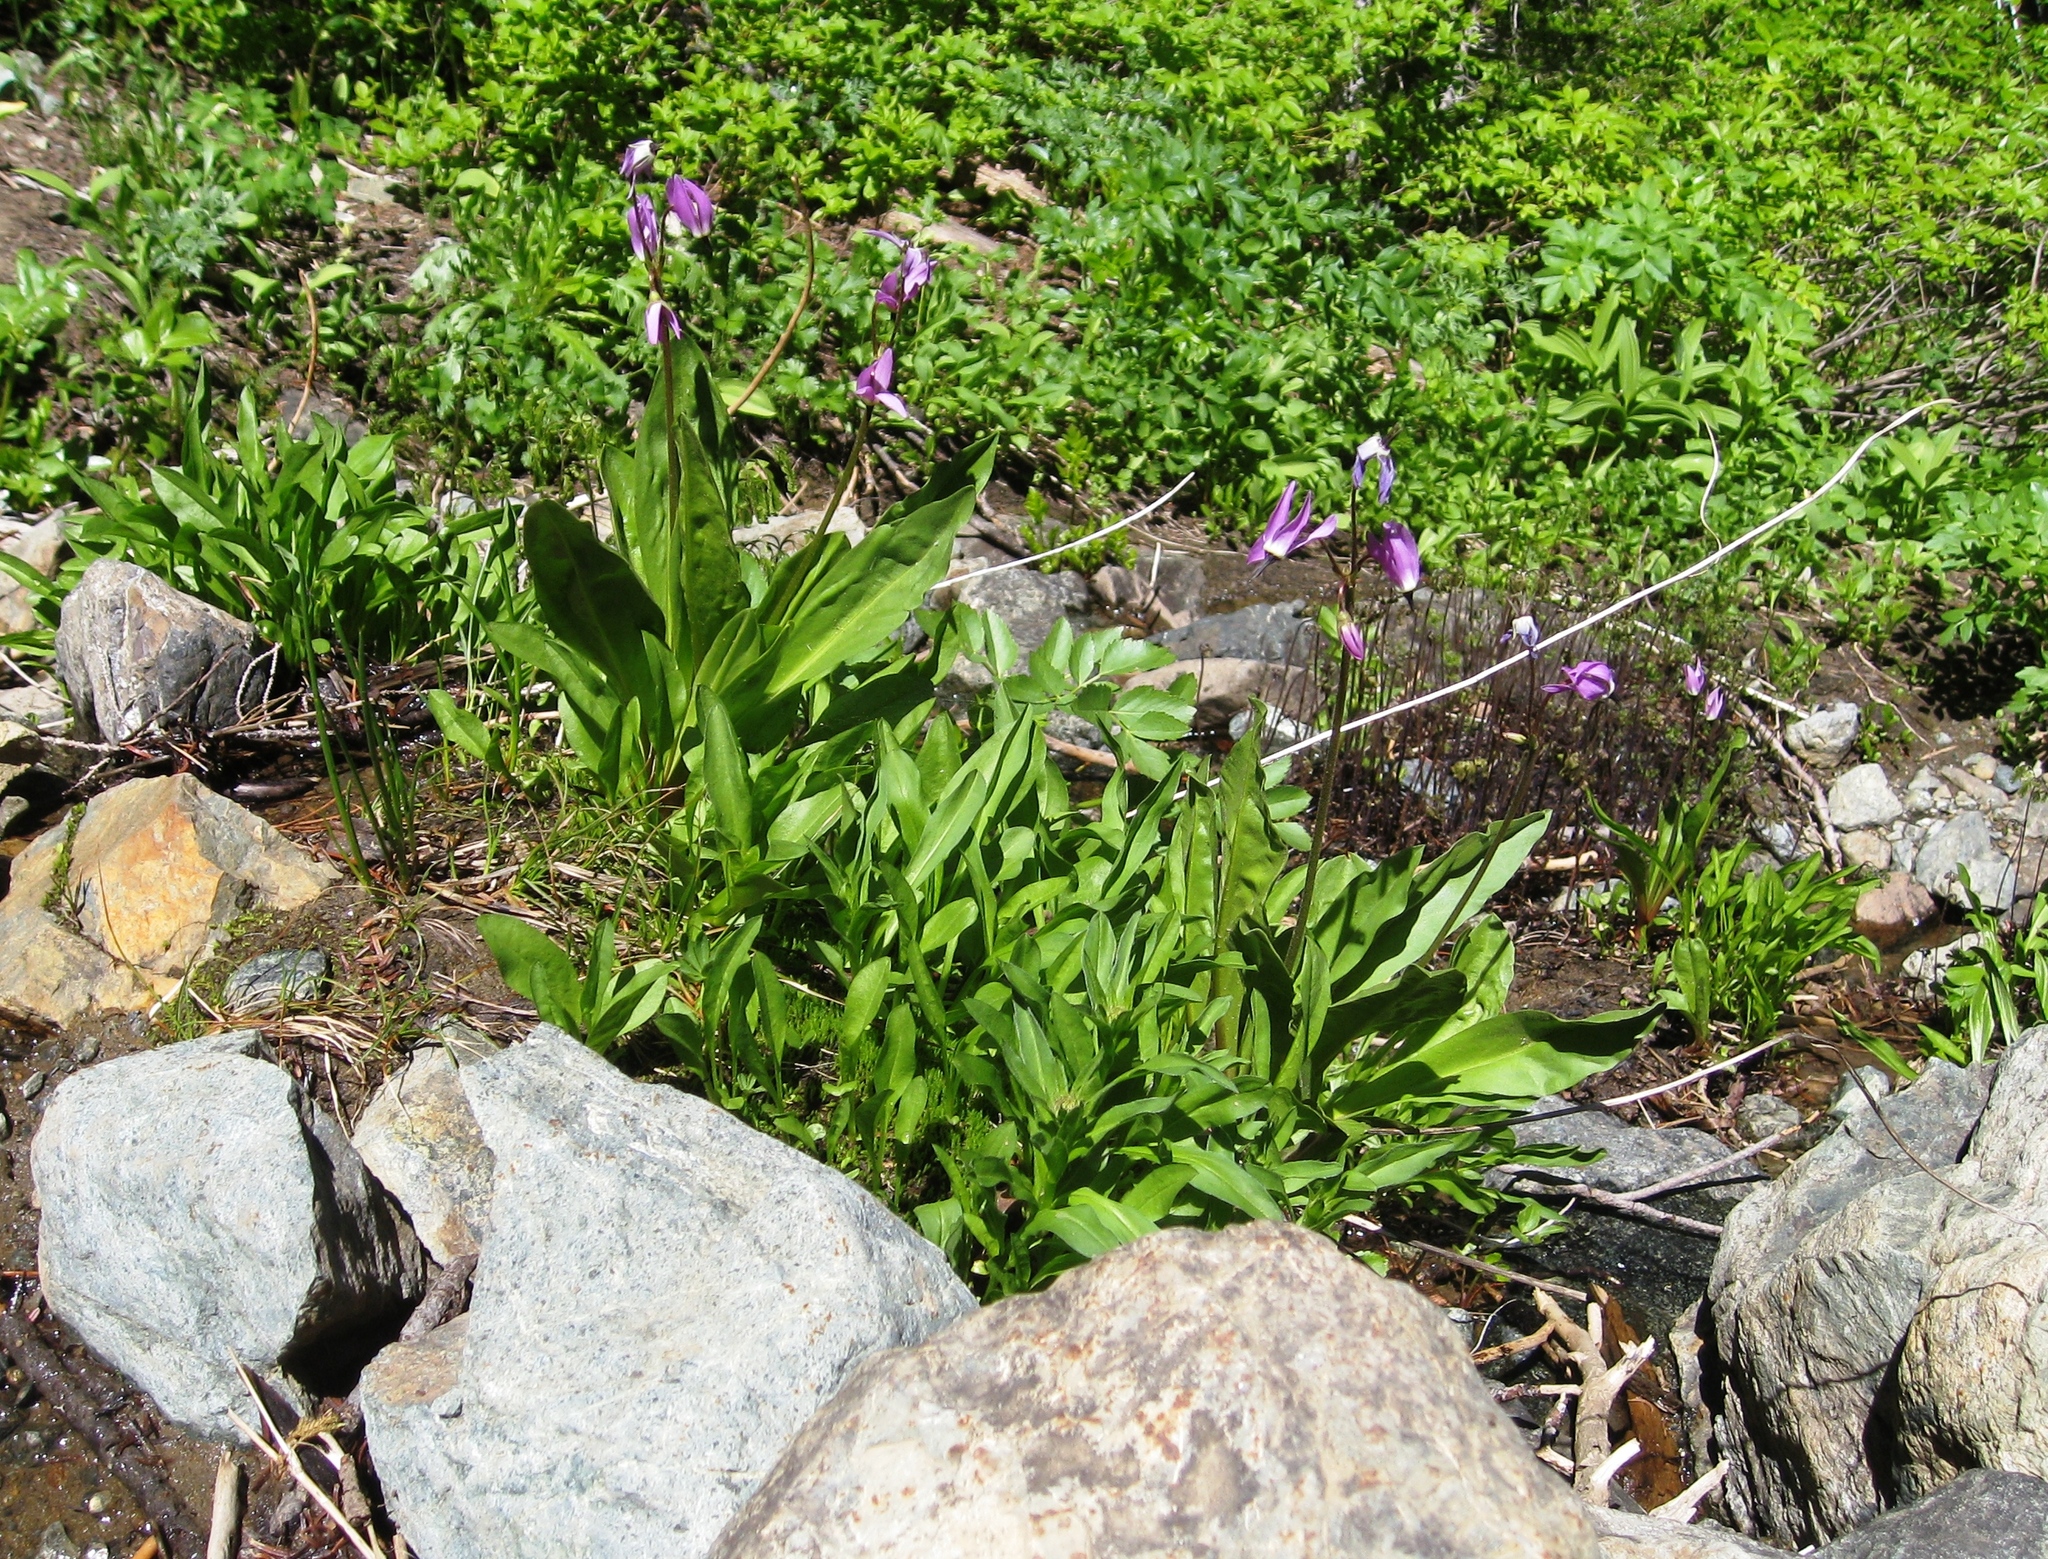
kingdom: Plantae
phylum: Tracheophyta
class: Magnoliopsida
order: Ericales
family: Primulaceae
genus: Dodecatheon
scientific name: Dodecatheon jeffreyanum
